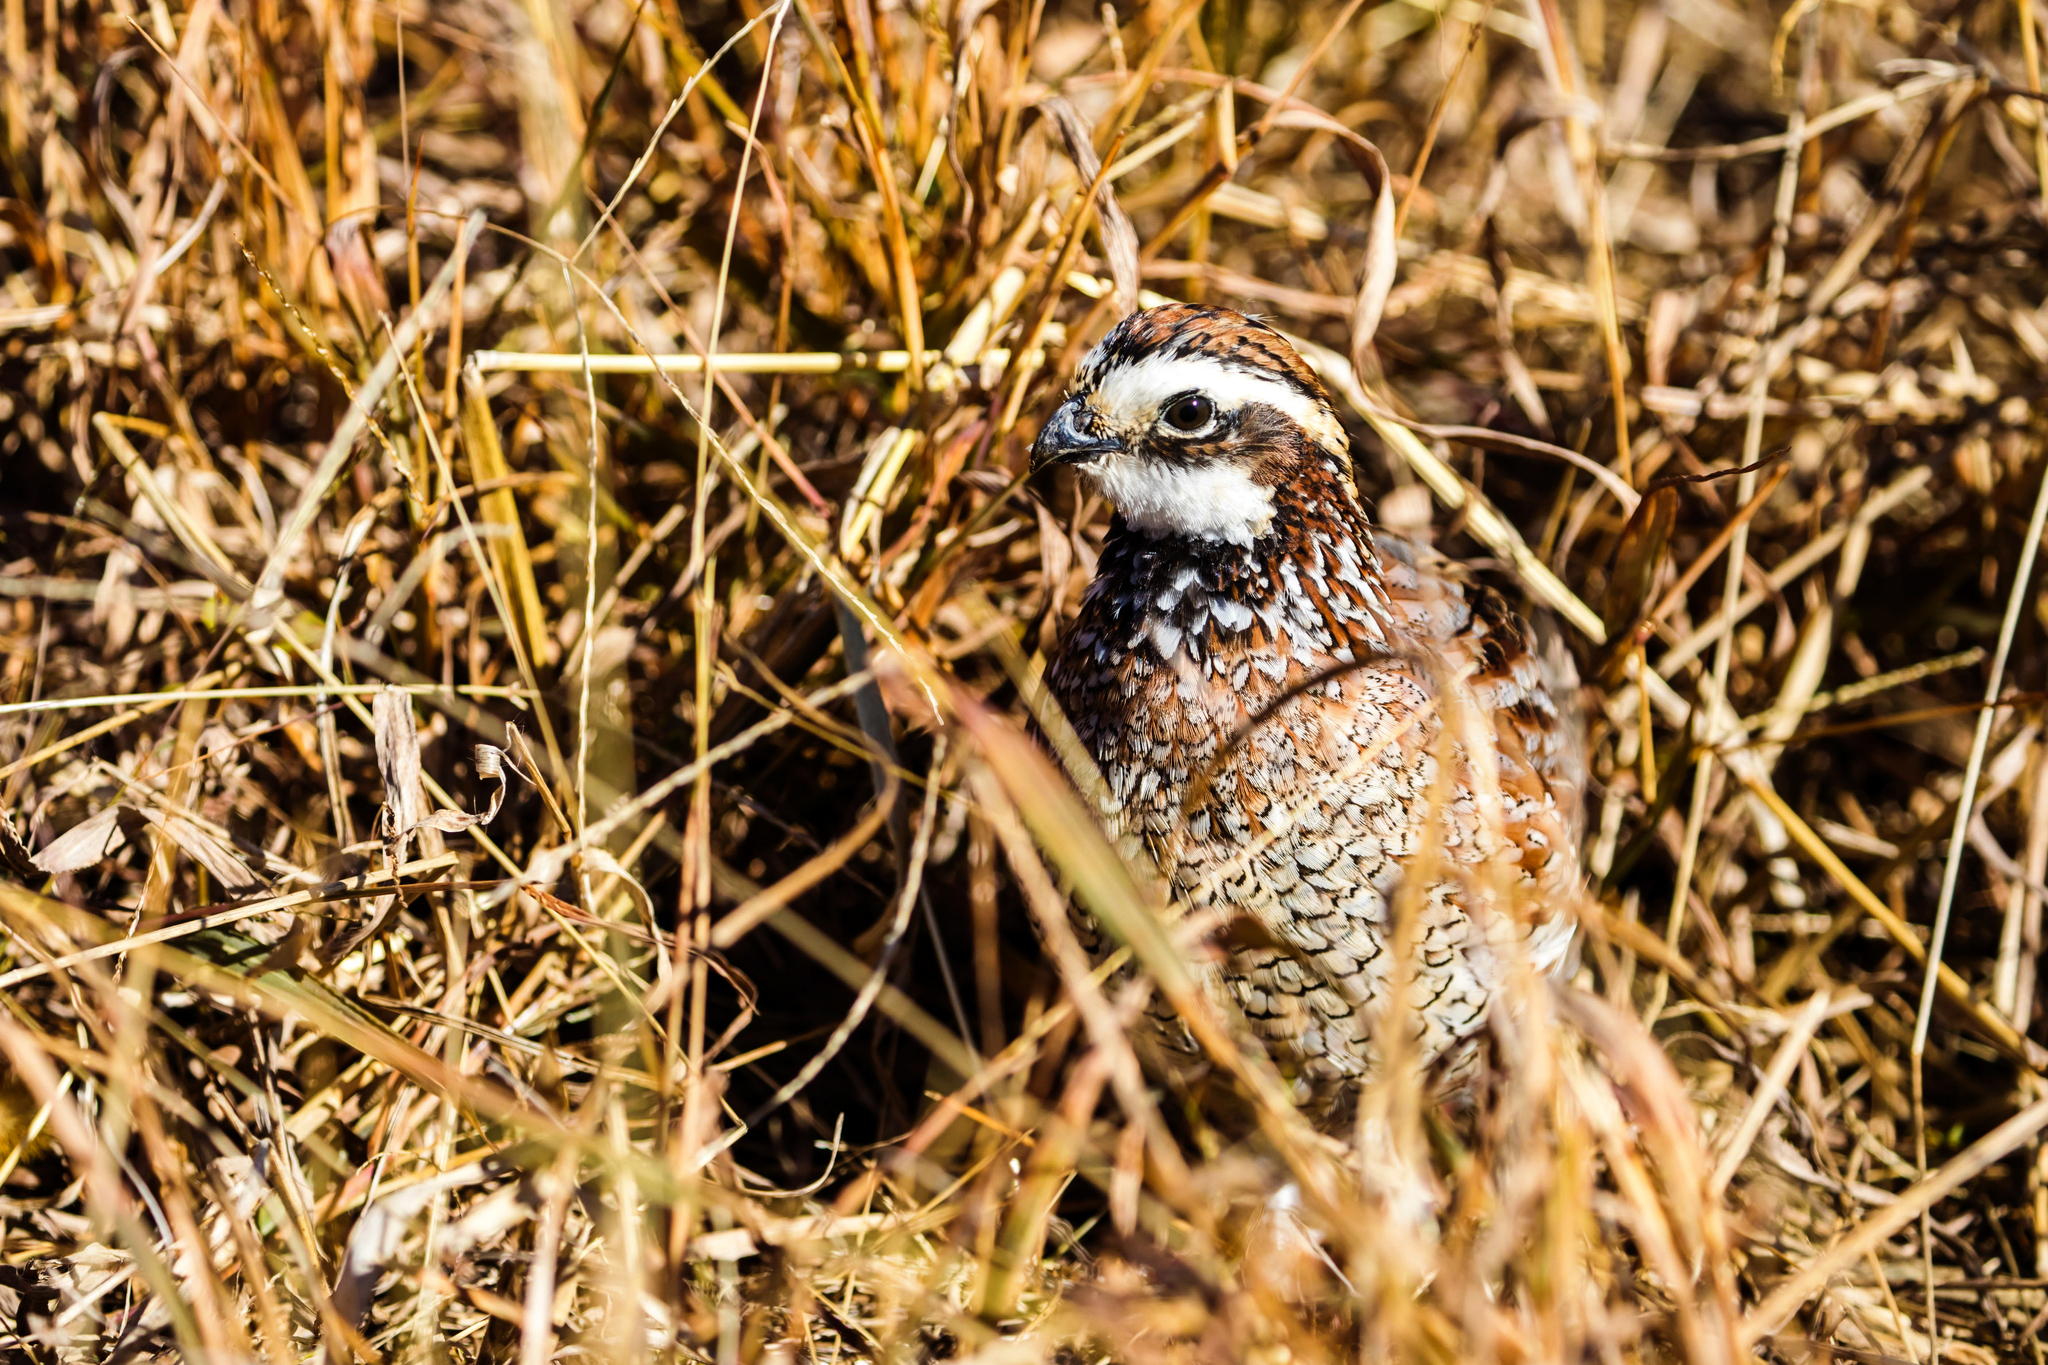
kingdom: Animalia
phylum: Chordata
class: Aves
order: Galliformes
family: Odontophoridae
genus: Colinus
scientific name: Colinus virginianus
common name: Northern bobwhite
